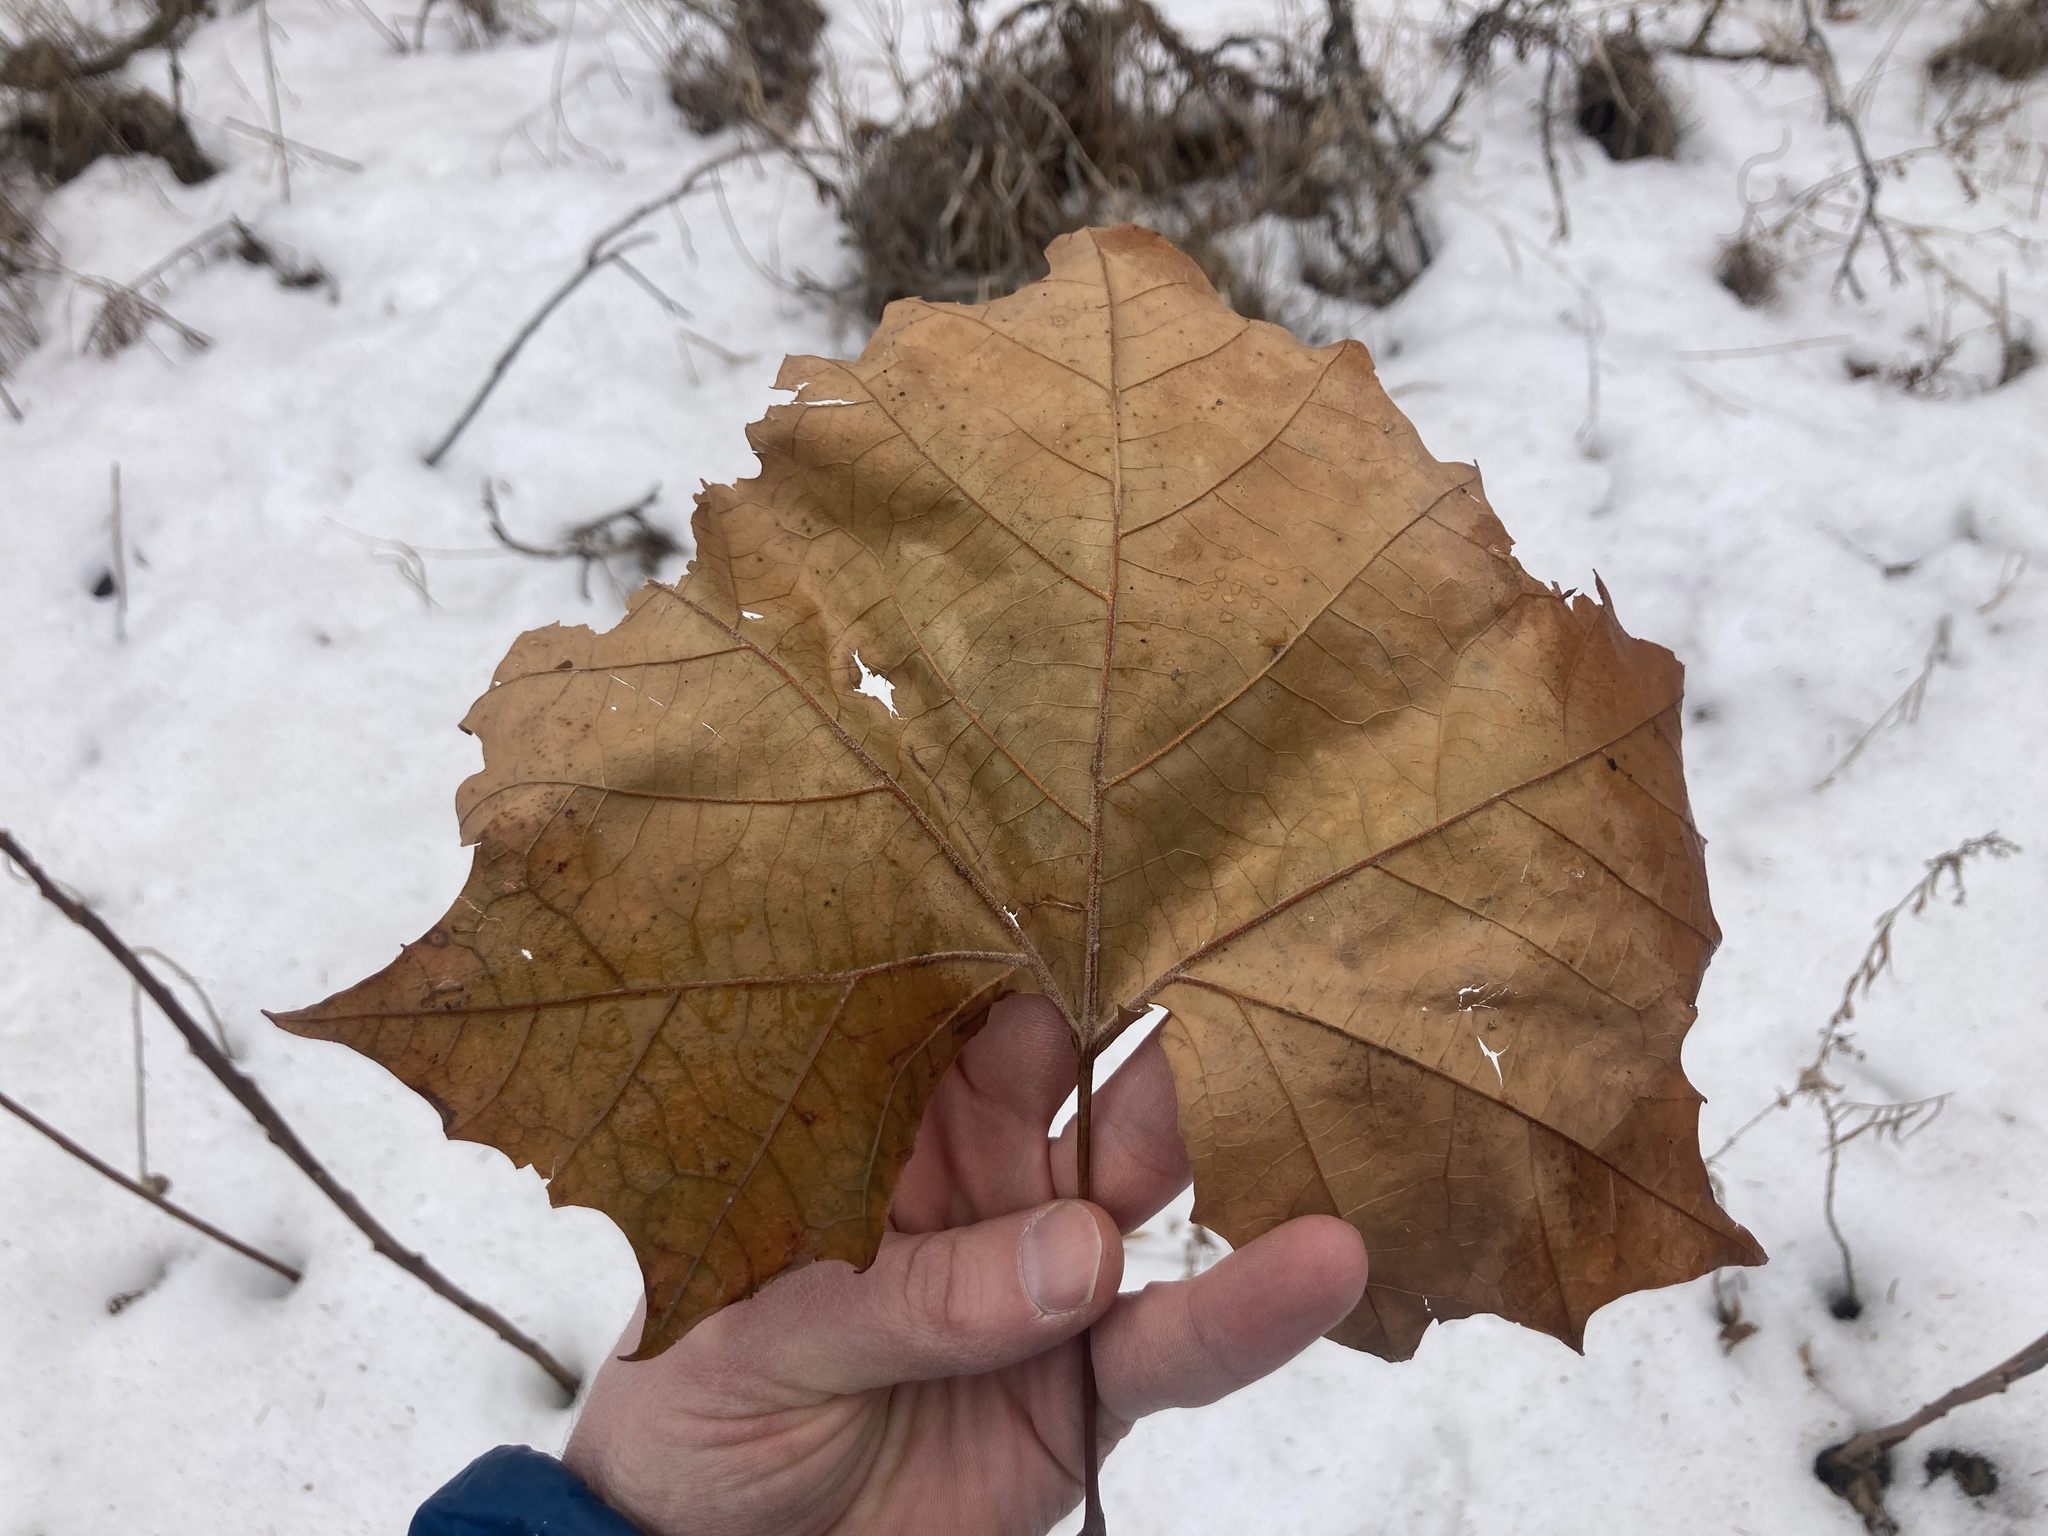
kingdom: Plantae
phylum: Tracheophyta
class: Magnoliopsida
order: Proteales
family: Platanaceae
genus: Platanus
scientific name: Platanus occidentalis
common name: American sycamore
